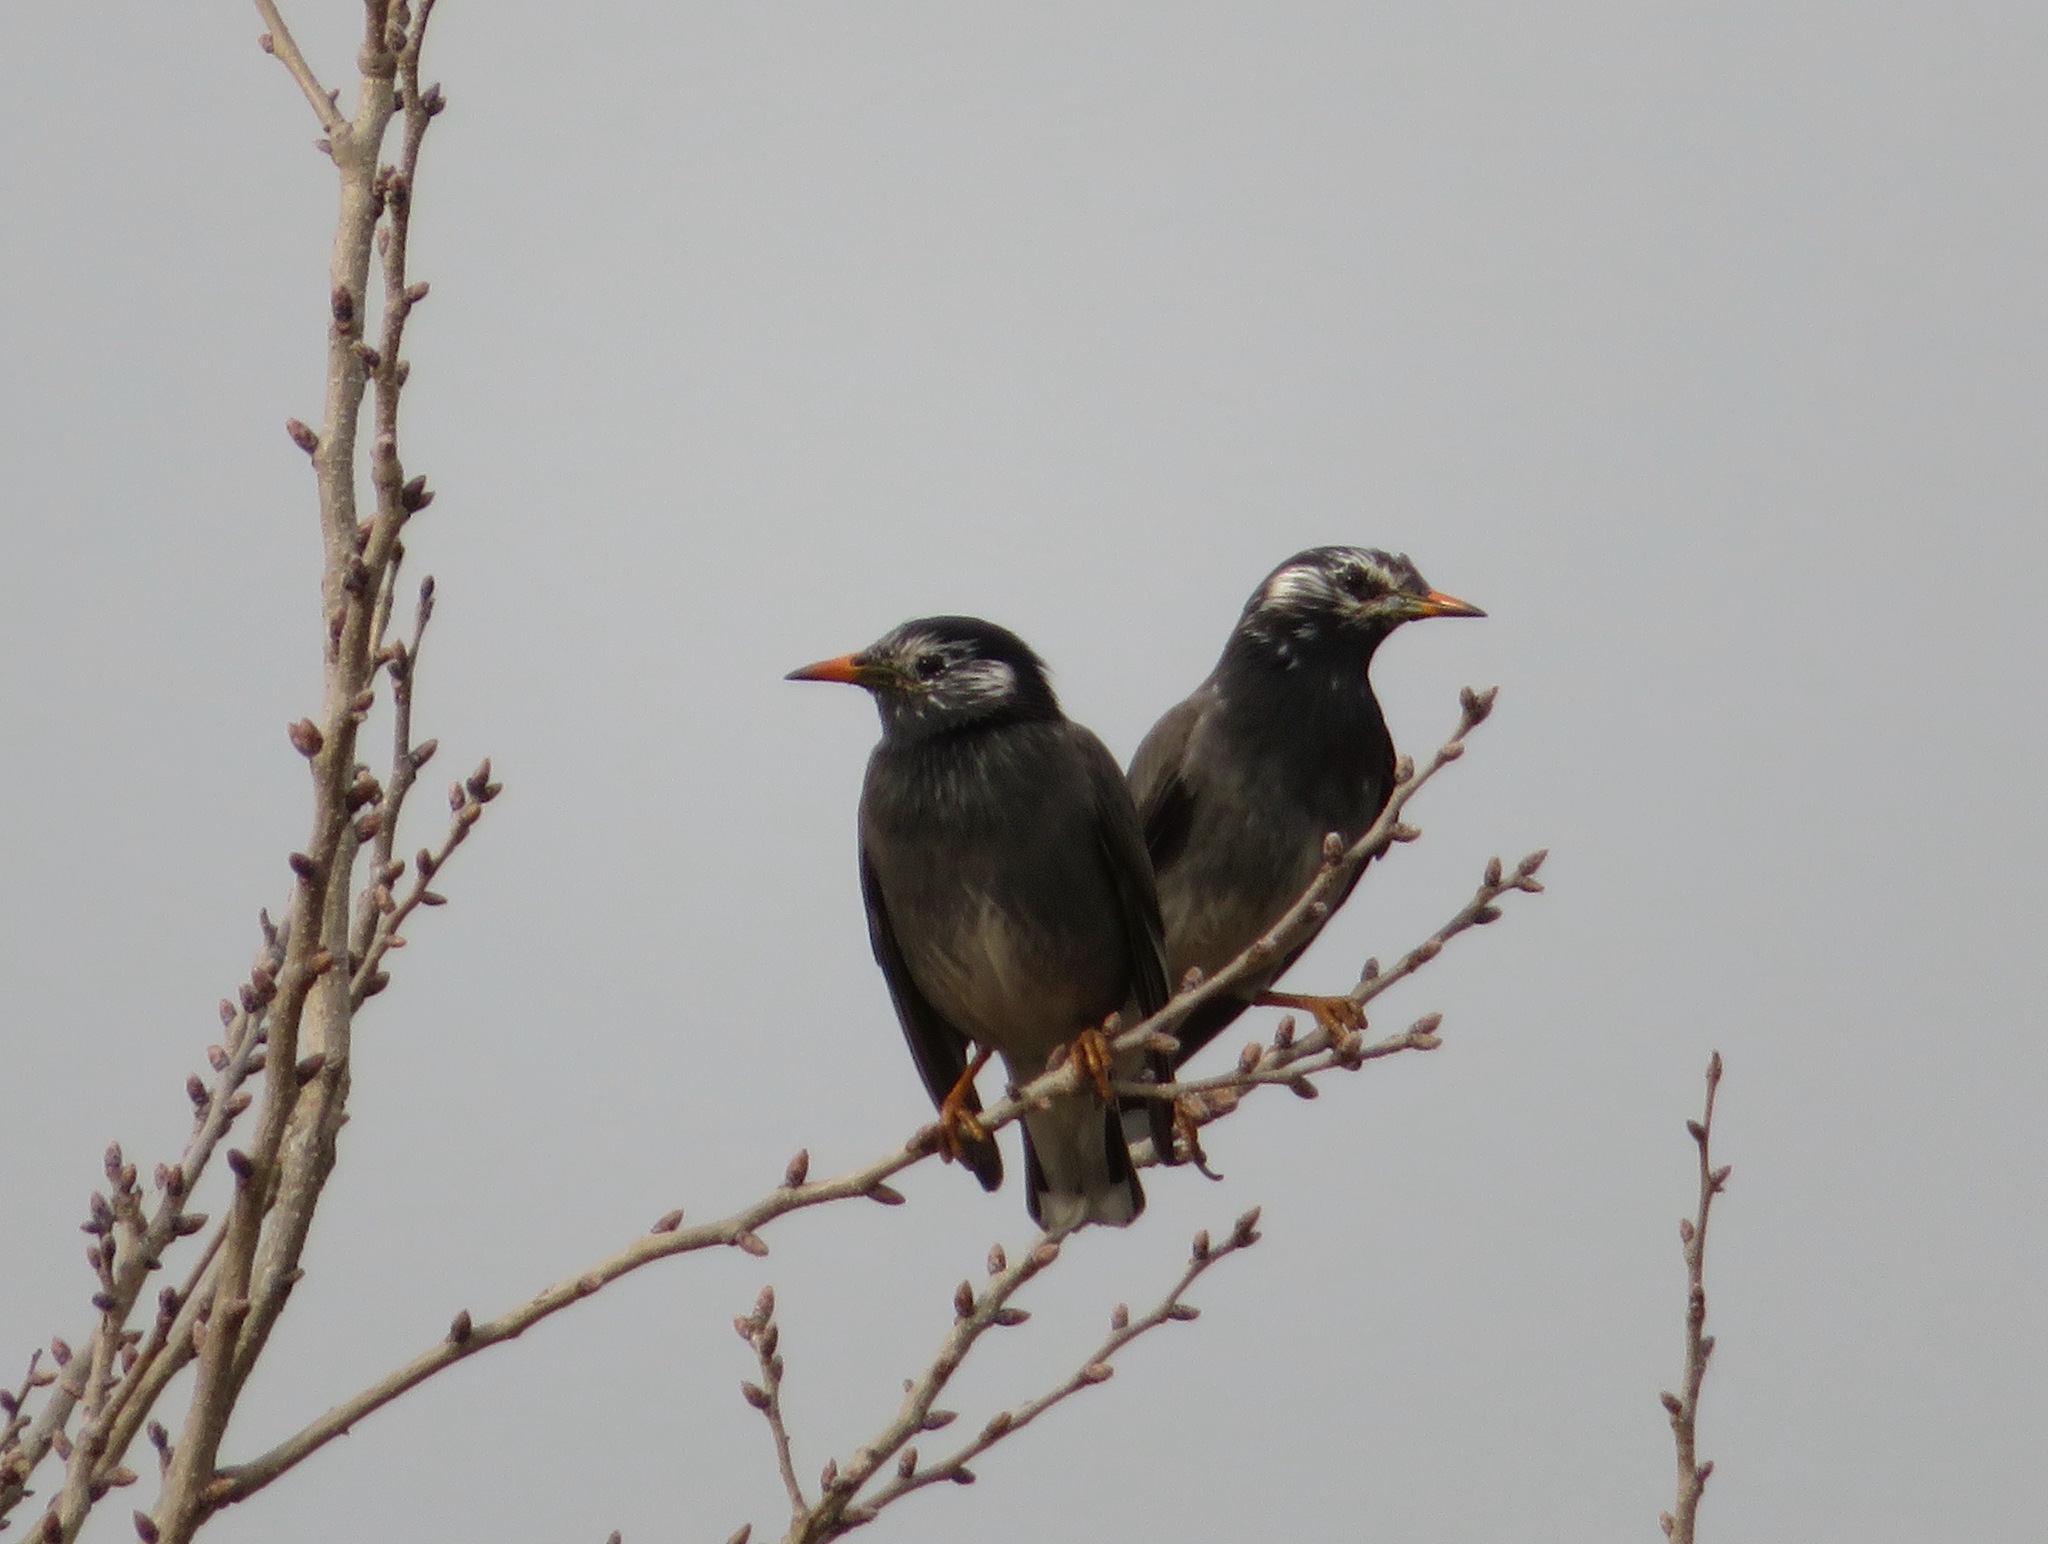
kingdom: Animalia
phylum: Chordata
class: Aves
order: Passeriformes
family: Sturnidae
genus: Spodiopsar
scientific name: Spodiopsar cineraceus
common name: White-cheeked starling
